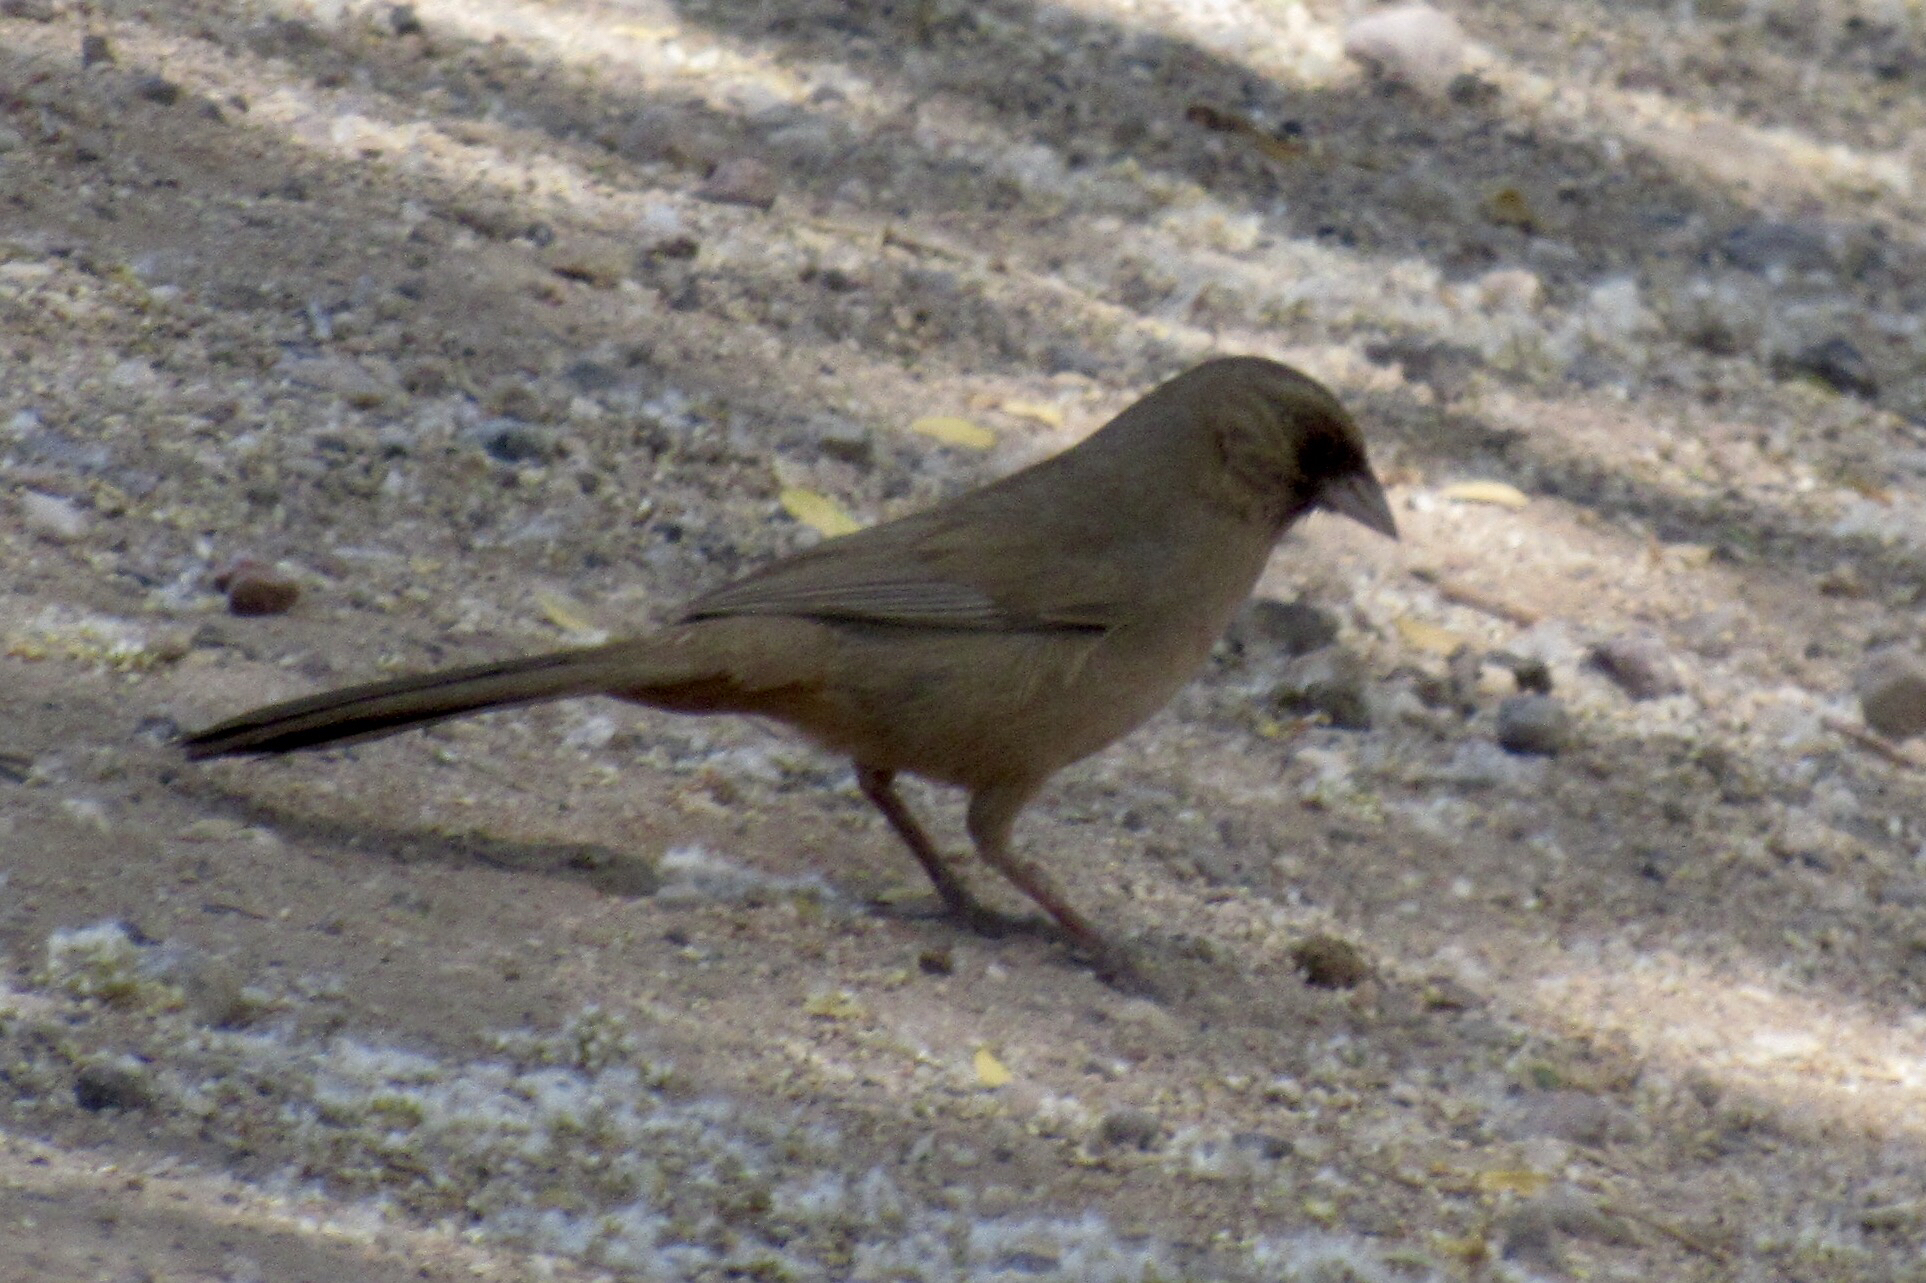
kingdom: Animalia
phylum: Chordata
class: Aves
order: Passeriformes
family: Passerellidae
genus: Melozone
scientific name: Melozone aberti
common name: Abert's towhee
